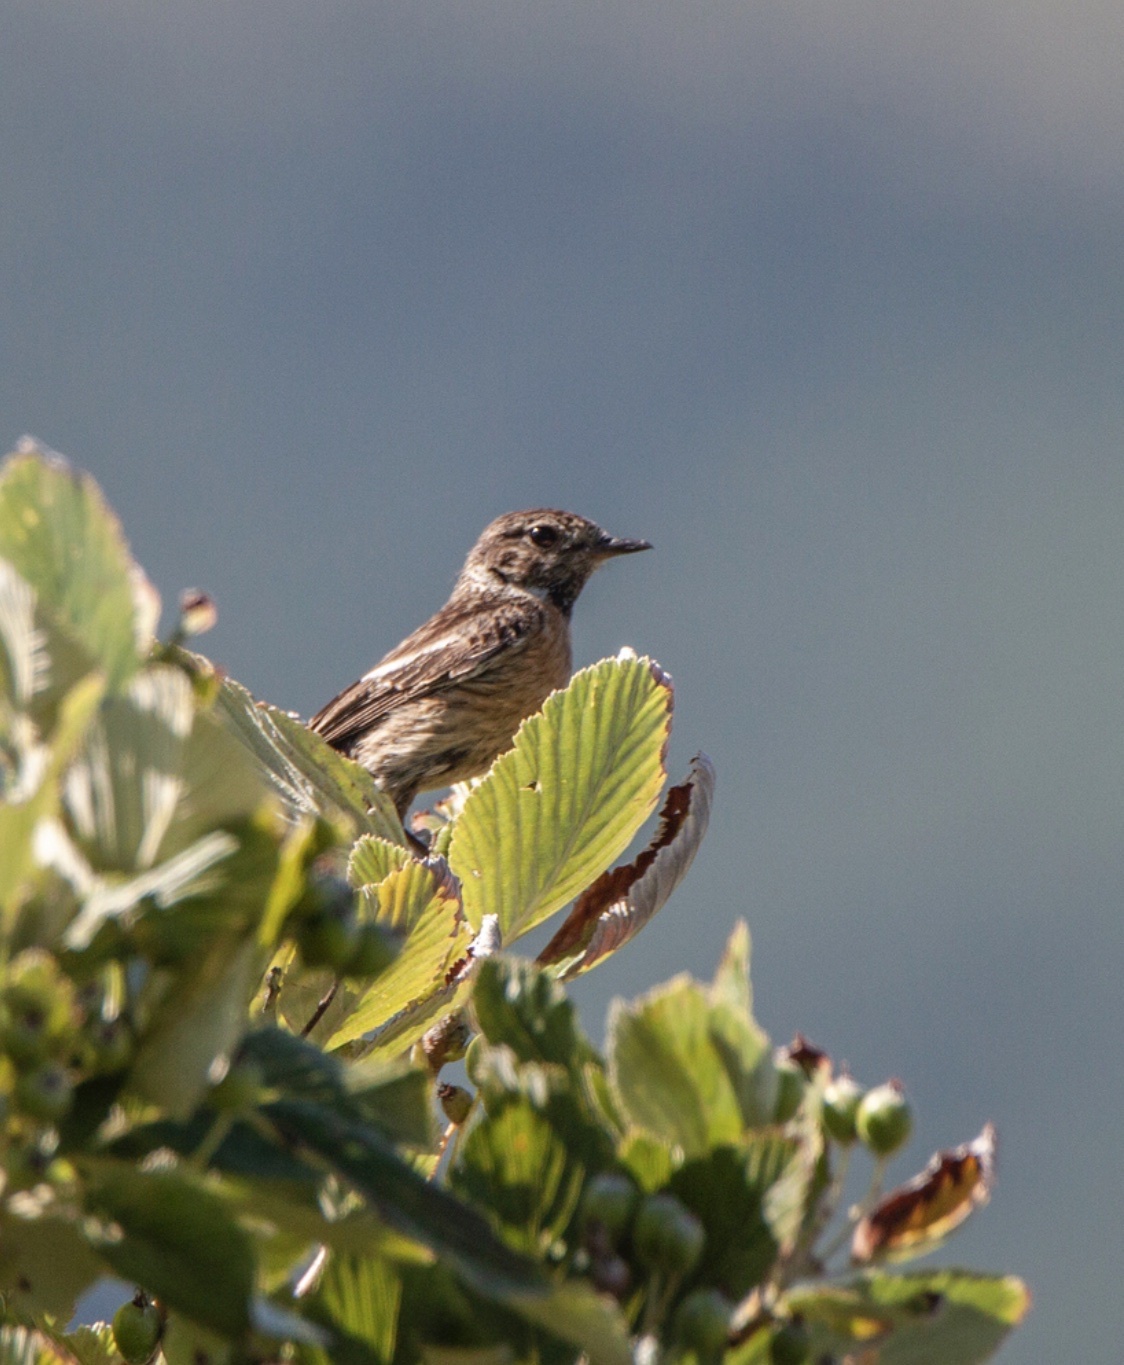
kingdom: Animalia
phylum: Chordata
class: Aves
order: Passeriformes
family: Muscicapidae
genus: Saxicola
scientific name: Saxicola rubicola
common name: European stonechat
